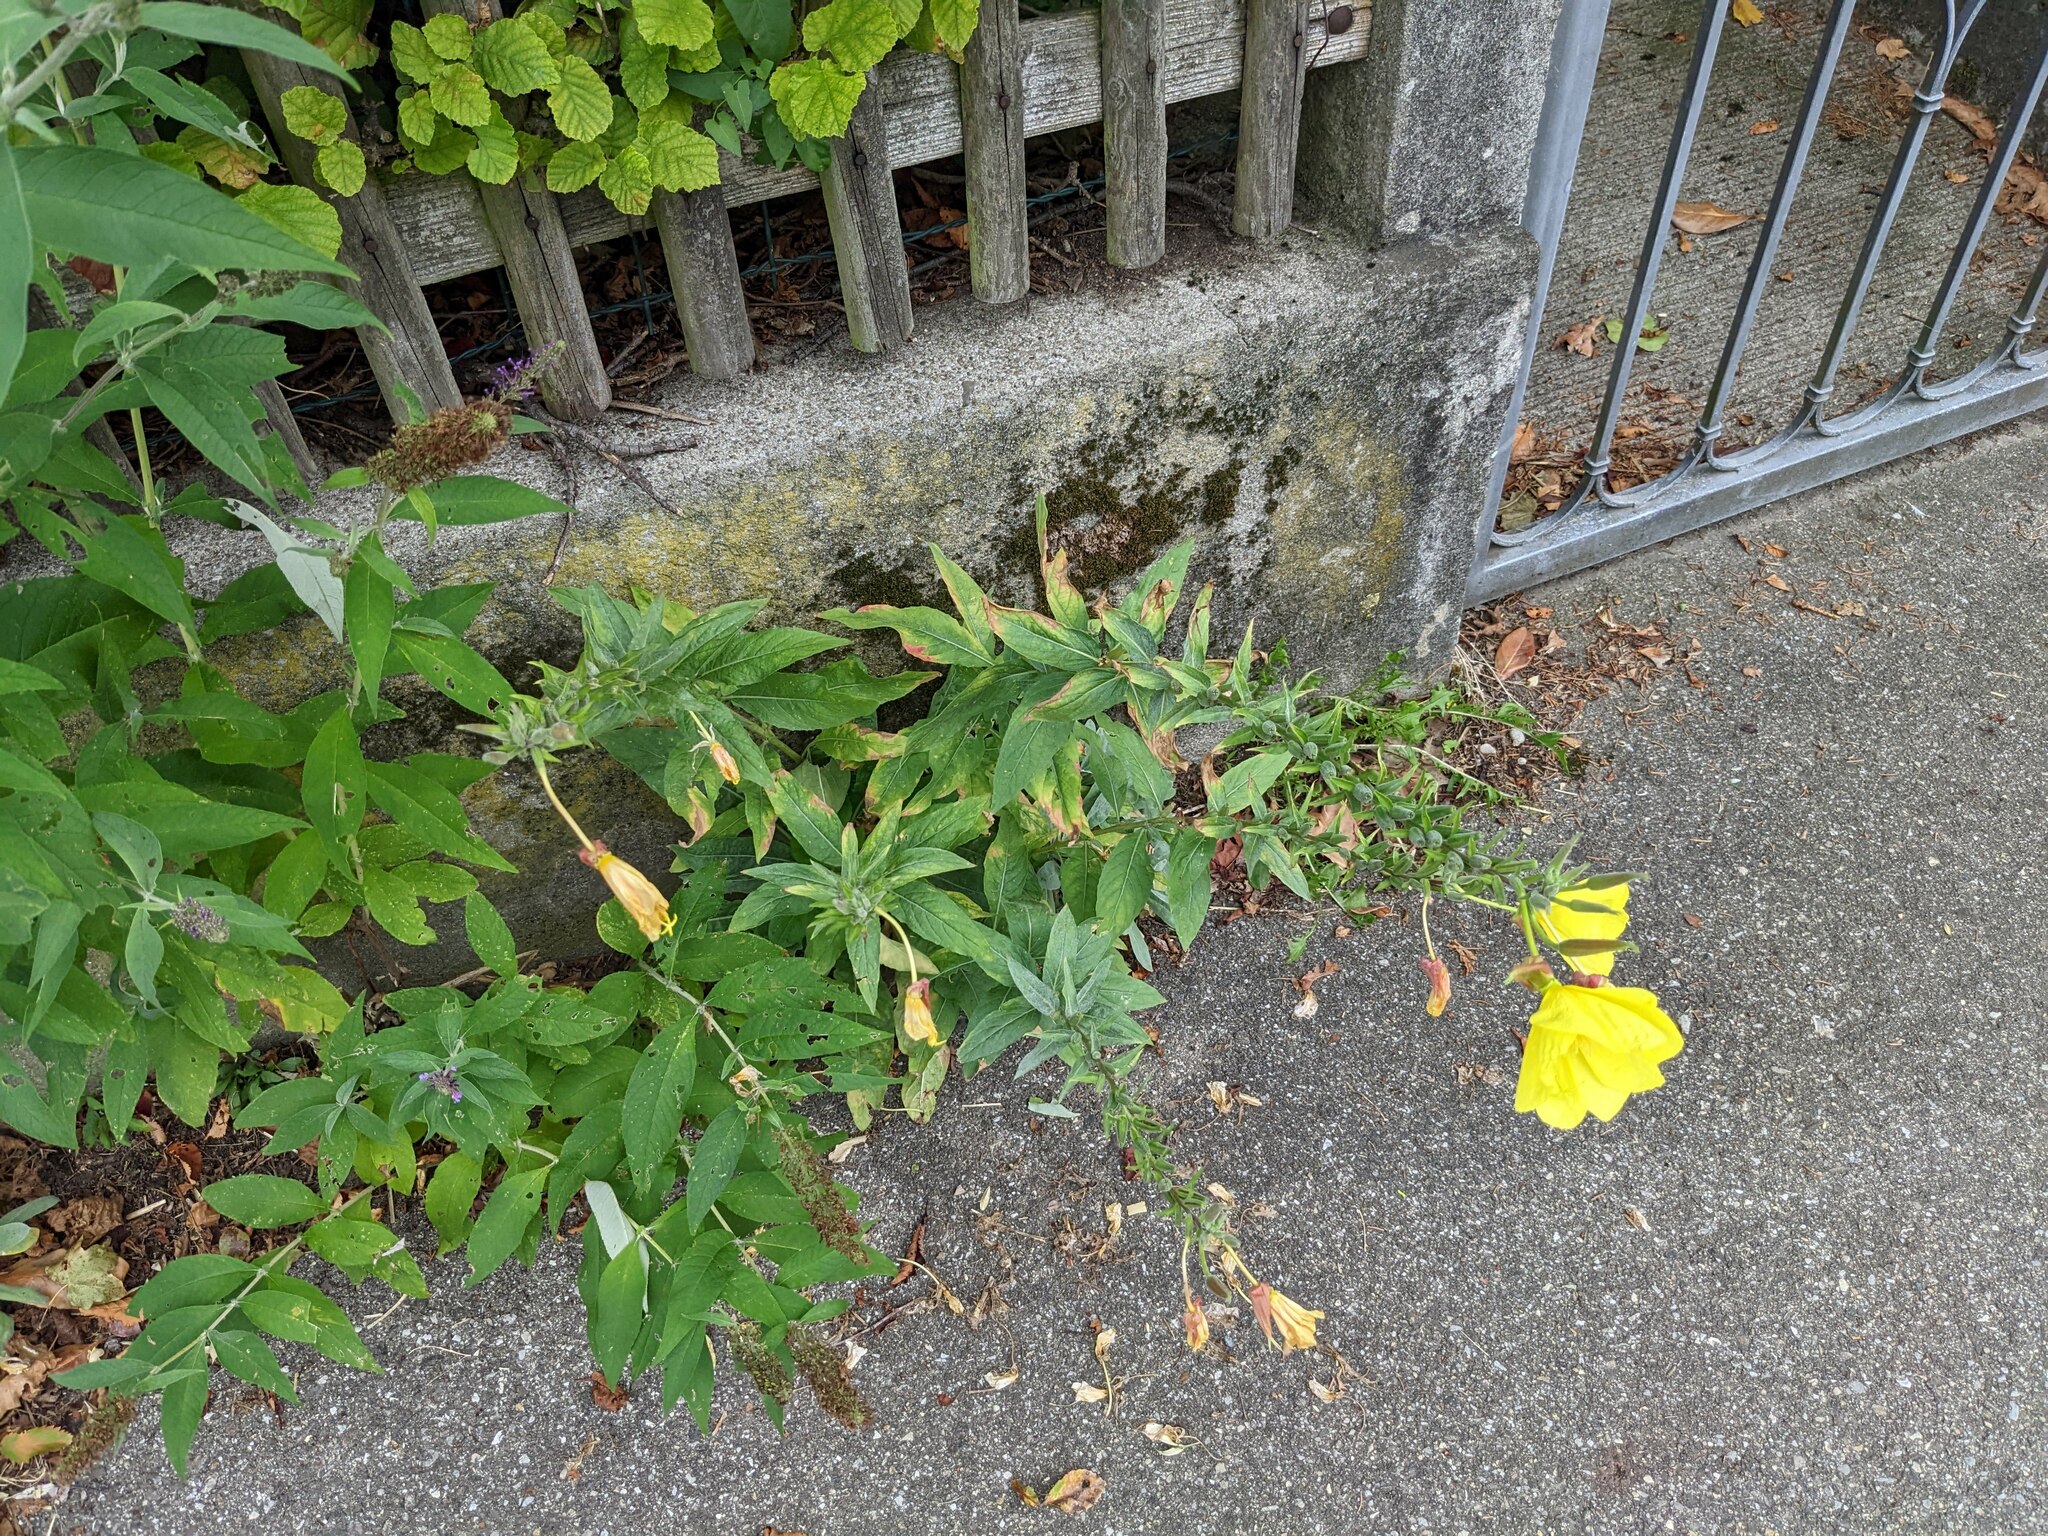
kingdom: Plantae
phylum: Tracheophyta
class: Magnoliopsida
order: Myrtales
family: Onagraceae
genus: Oenothera
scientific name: Oenothera glazioviana
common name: Large-flowered evening-primrose
